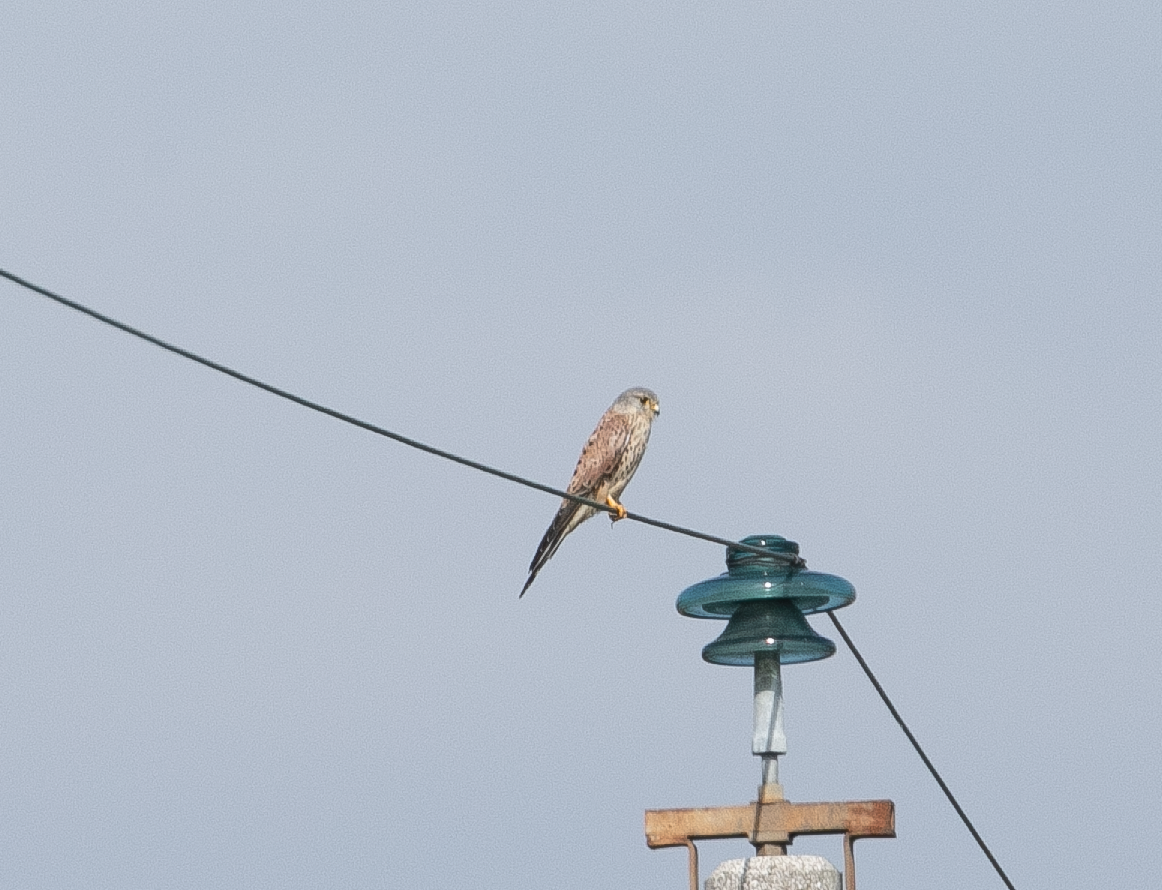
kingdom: Animalia
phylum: Chordata
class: Aves
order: Falconiformes
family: Falconidae
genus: Falco
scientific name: Falco tinnunculus
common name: Common kestrel
